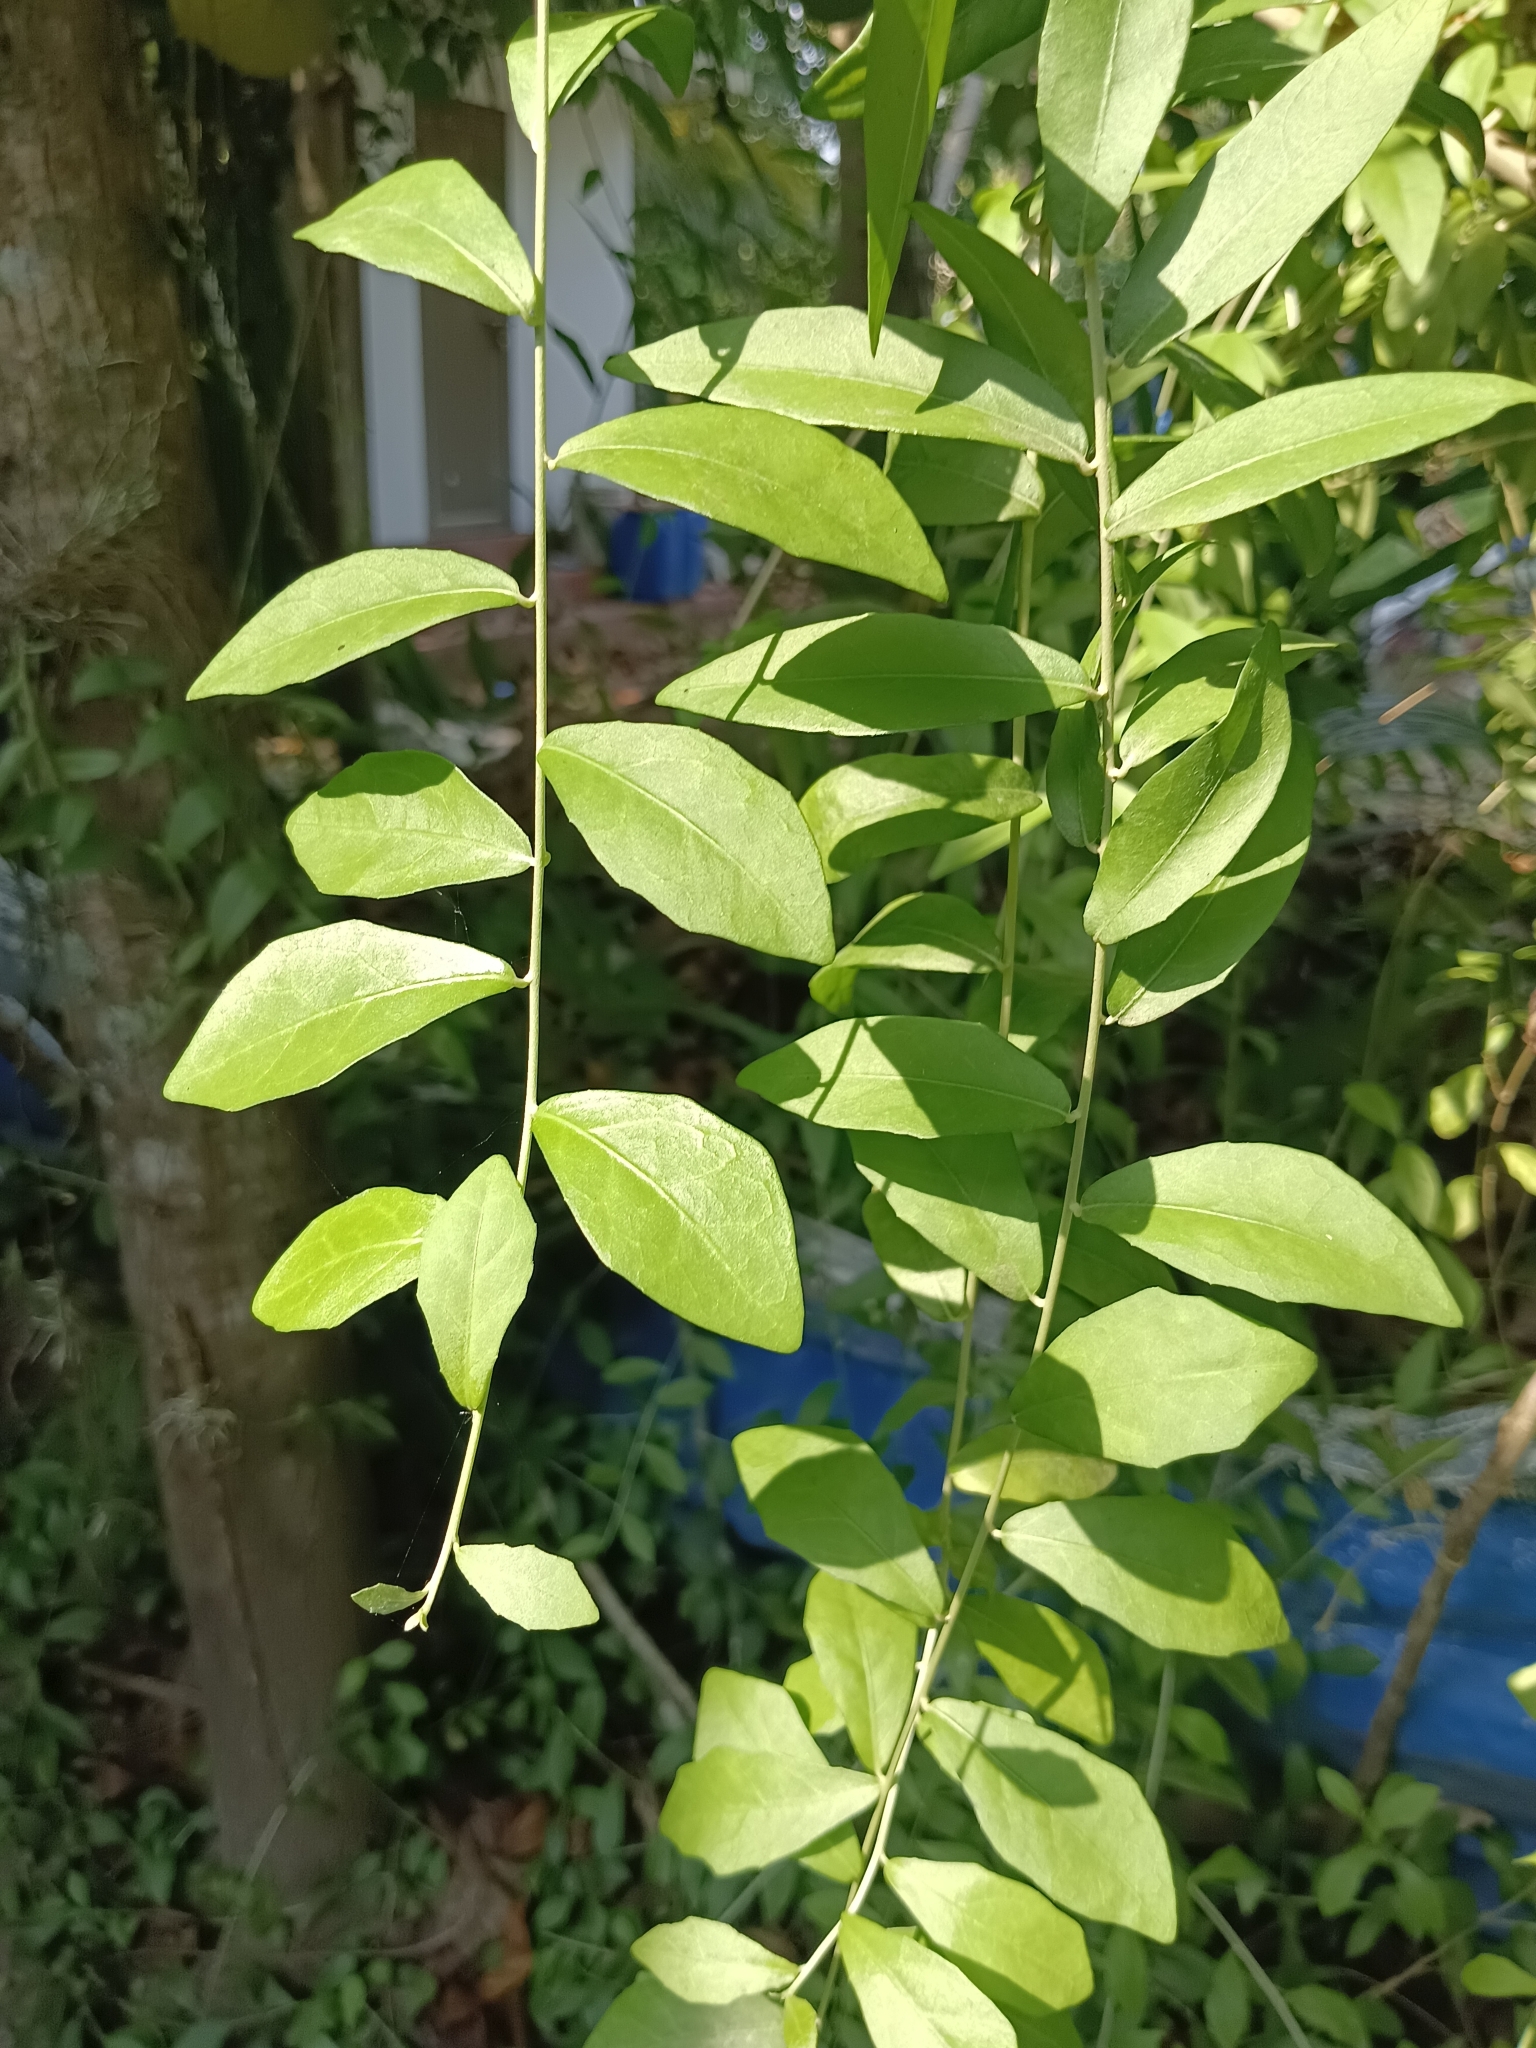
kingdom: Plantae
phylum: Tracheophyta
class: Magnoliopsida
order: Asterales
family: Asteraceae
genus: Tarlmounia
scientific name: Tarlmounia elliptica
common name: Kheua sa lot
